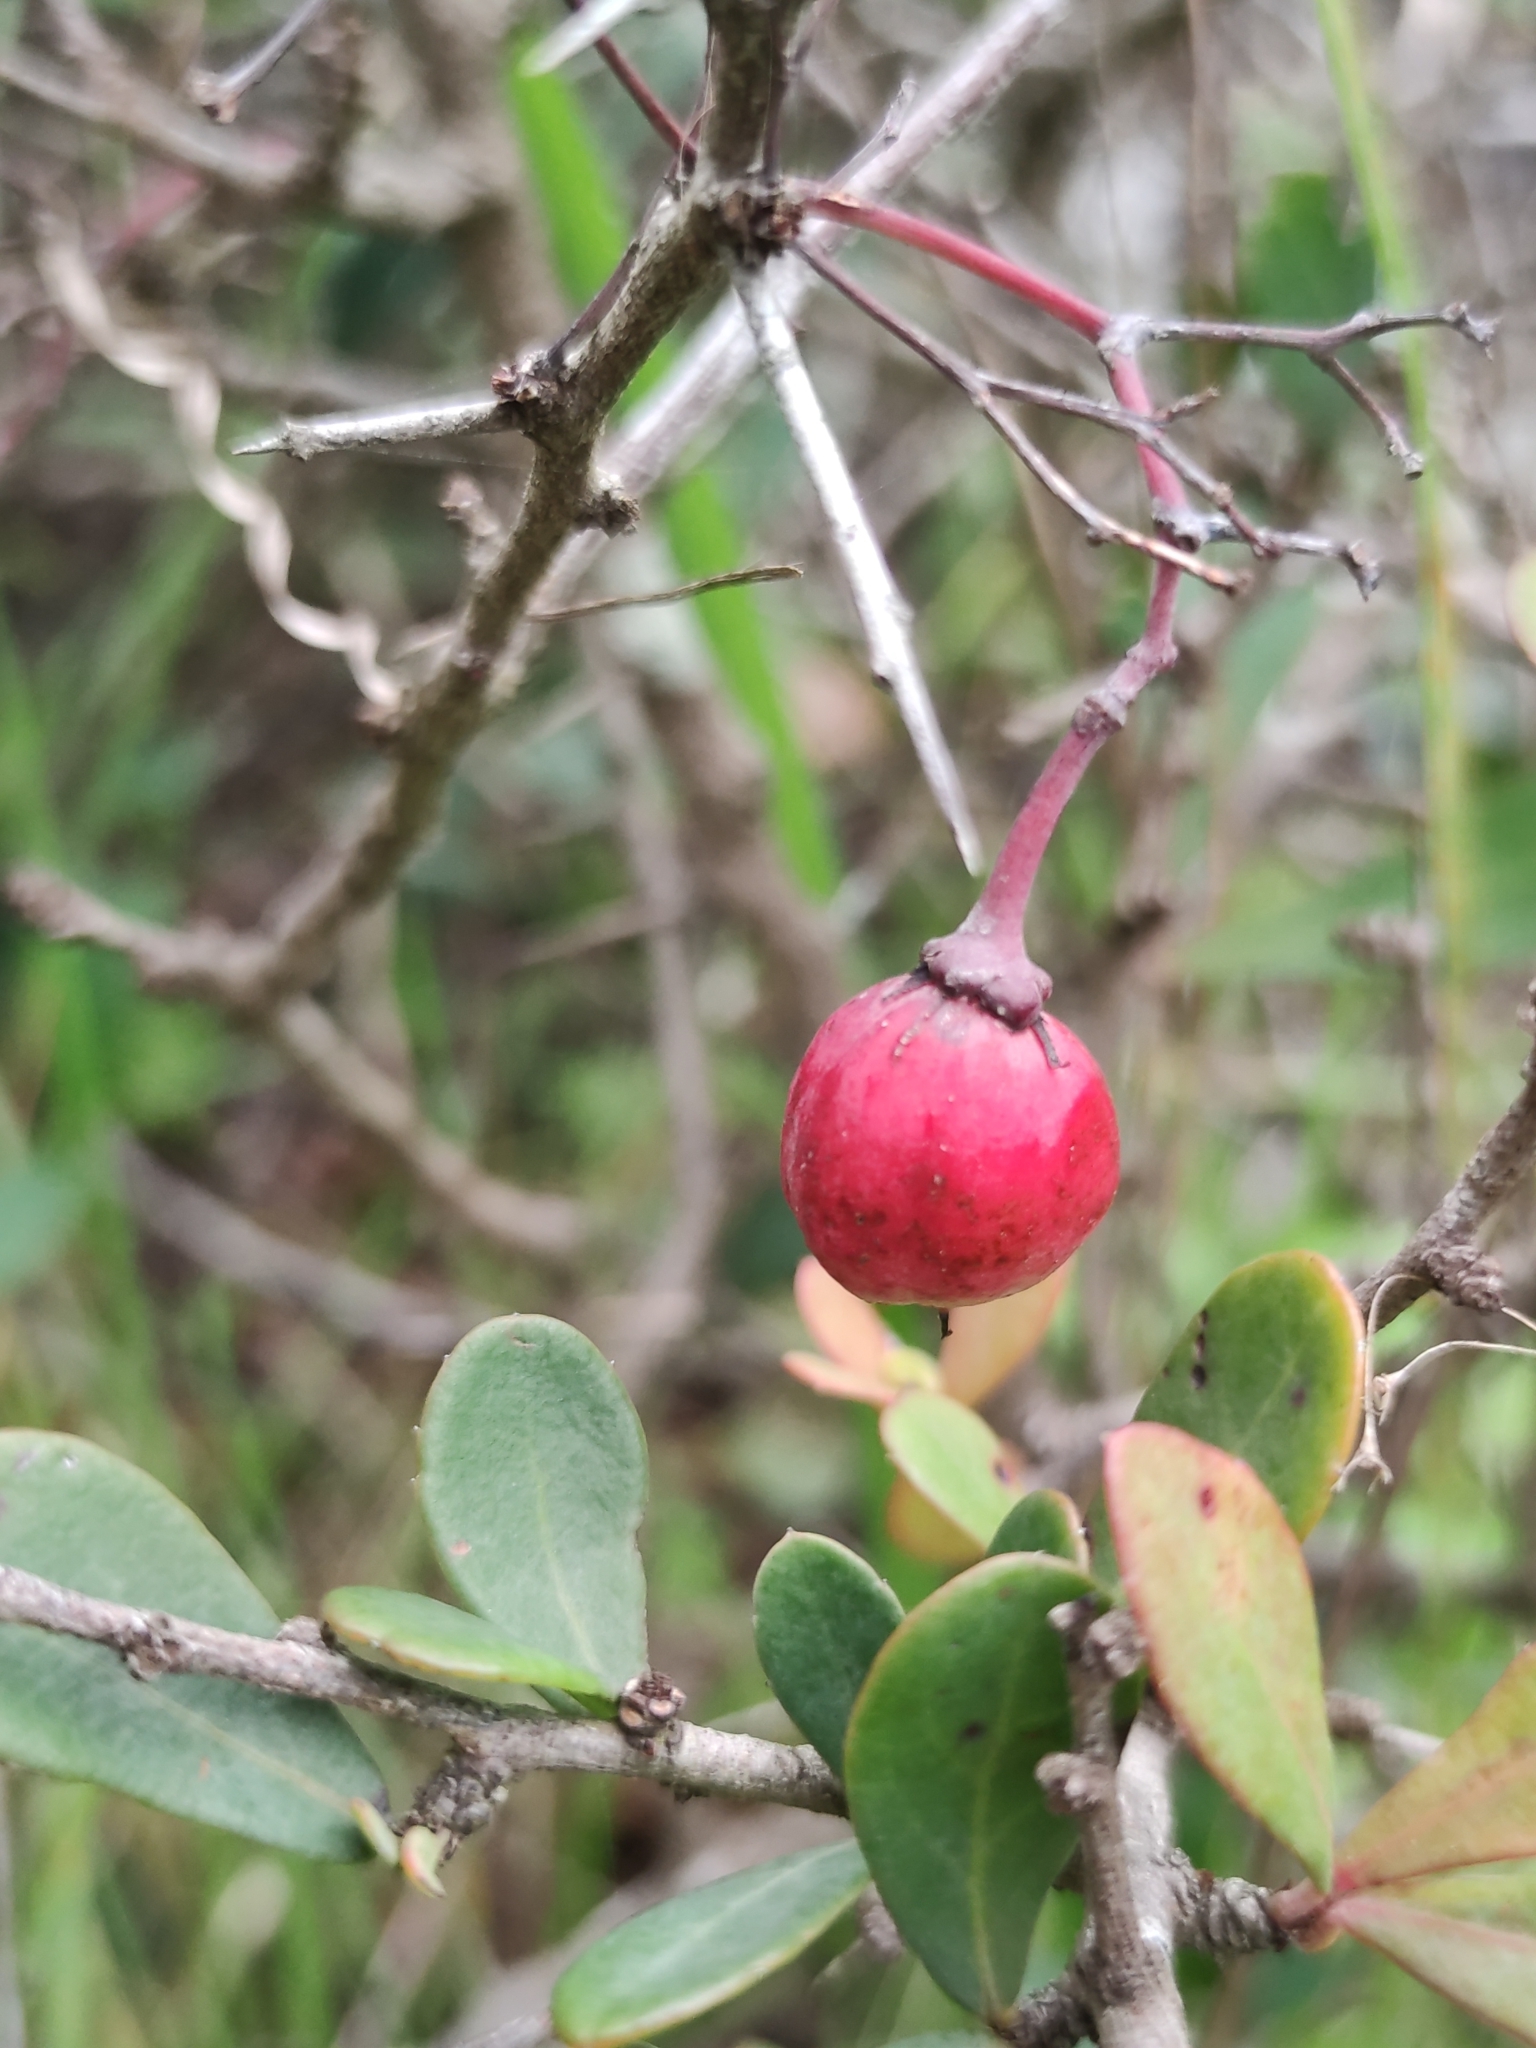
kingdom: Plantae
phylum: Tracheophyta
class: Magnoliopsida
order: Celastrales
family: Celastraceae
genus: Putterlickia
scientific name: Putterlickia pyracantha
